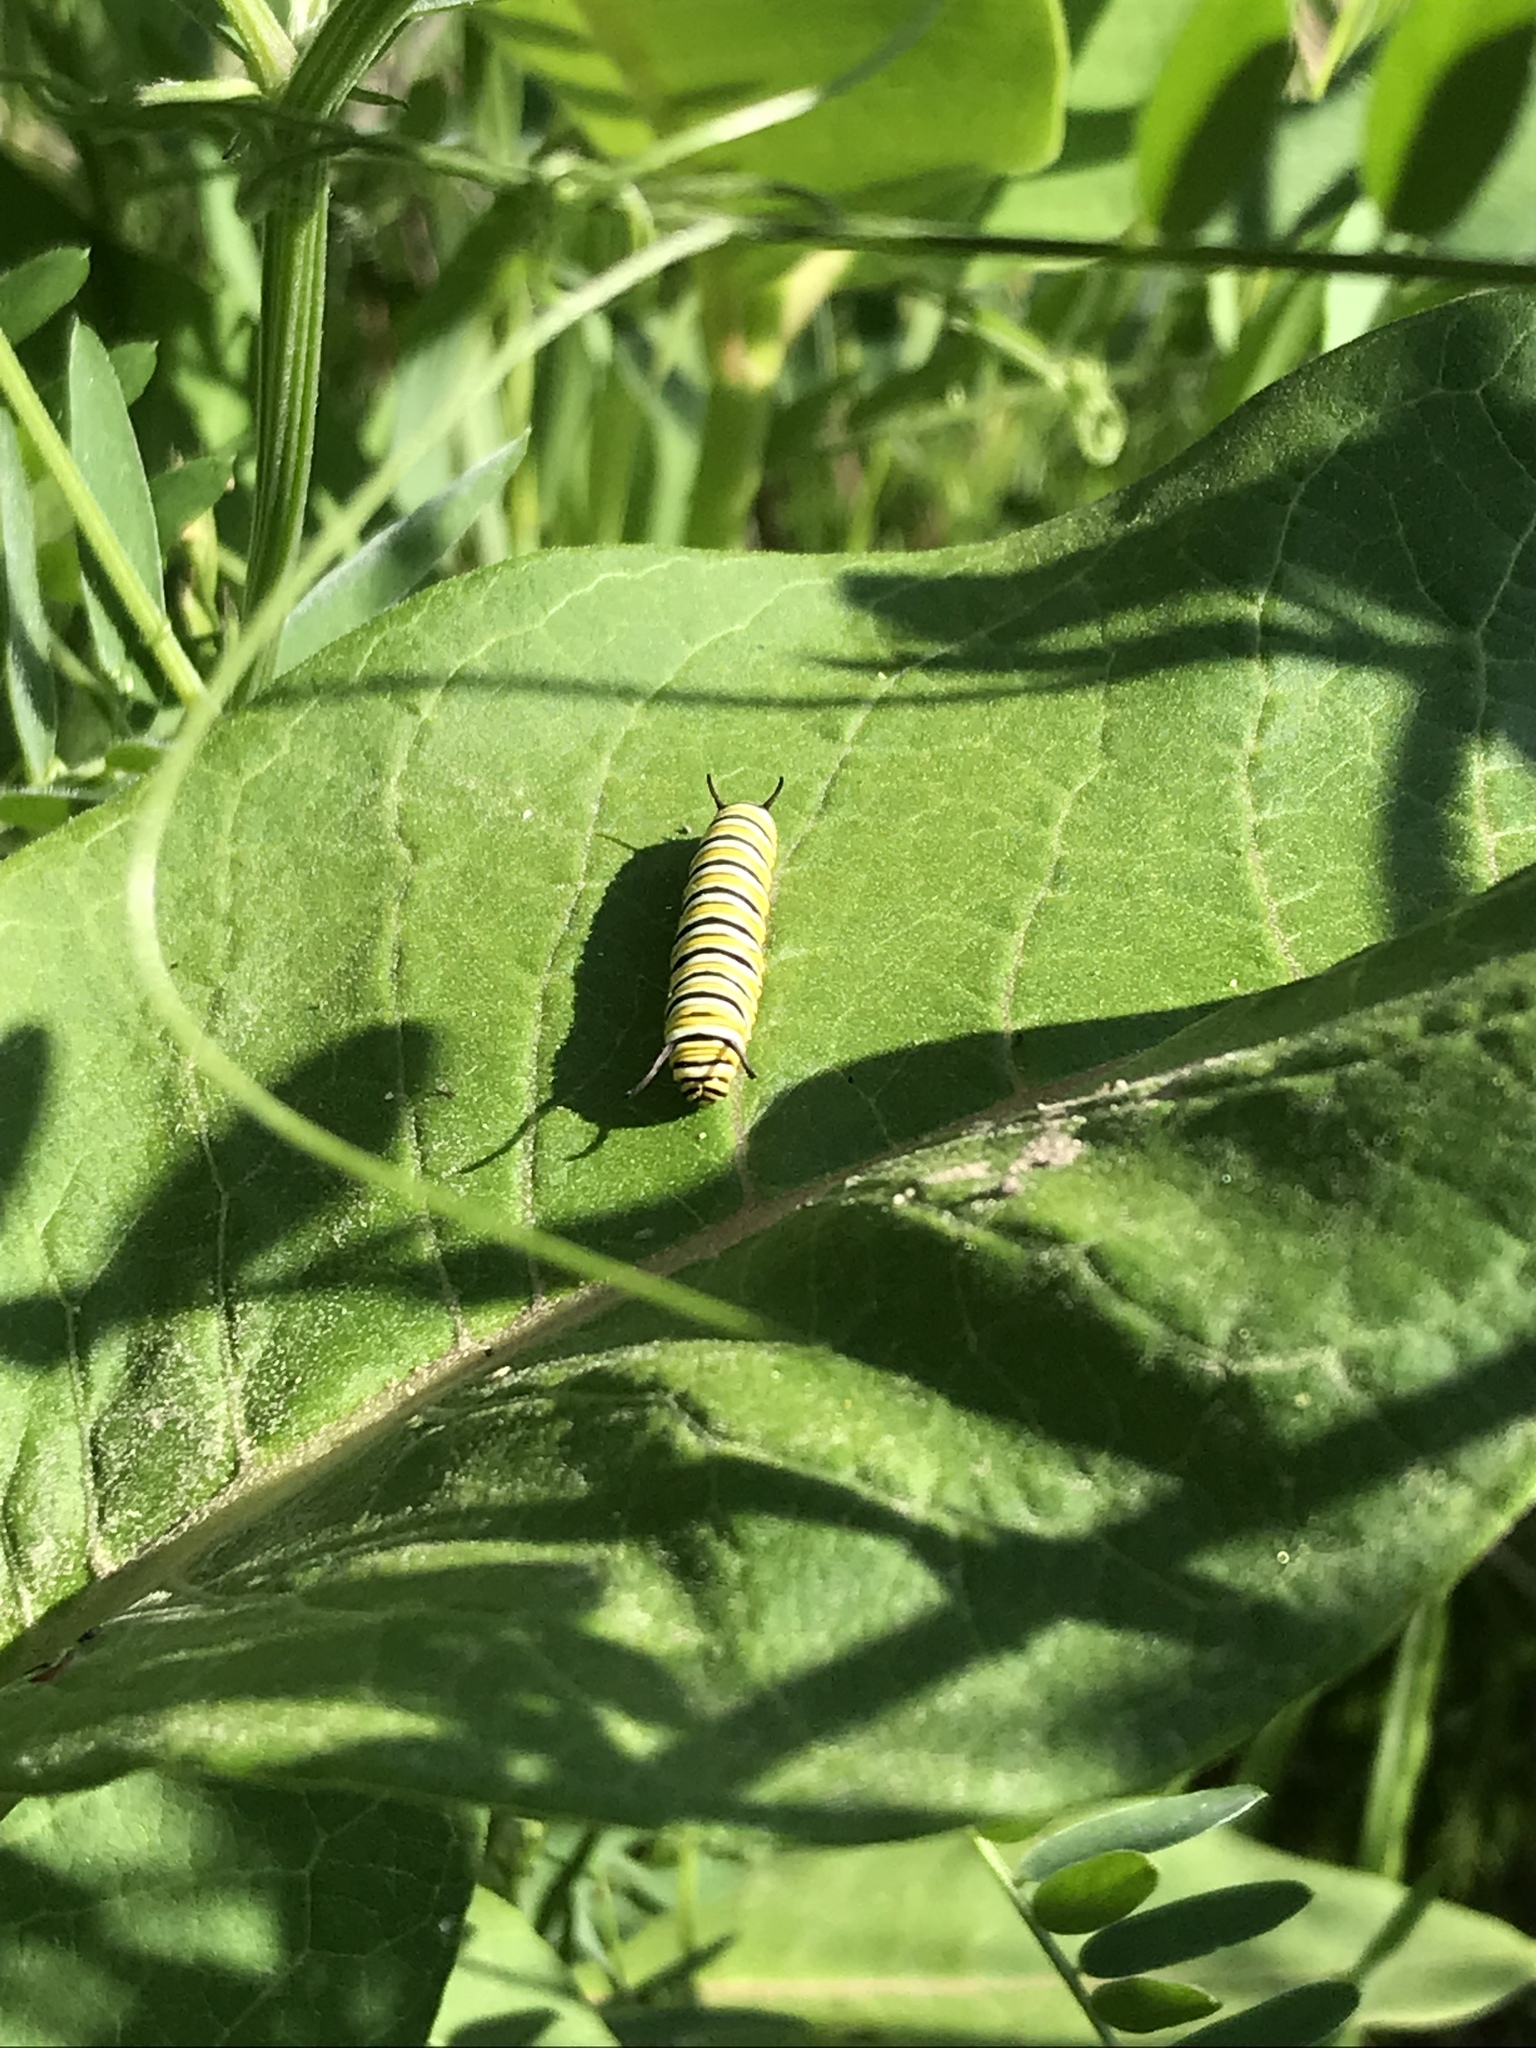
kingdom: Animalia
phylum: Arthropoda
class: Insecta
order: Lepidoptera
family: Nymphalidae
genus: Danaus
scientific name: Danaus plexippus
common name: Monarch
